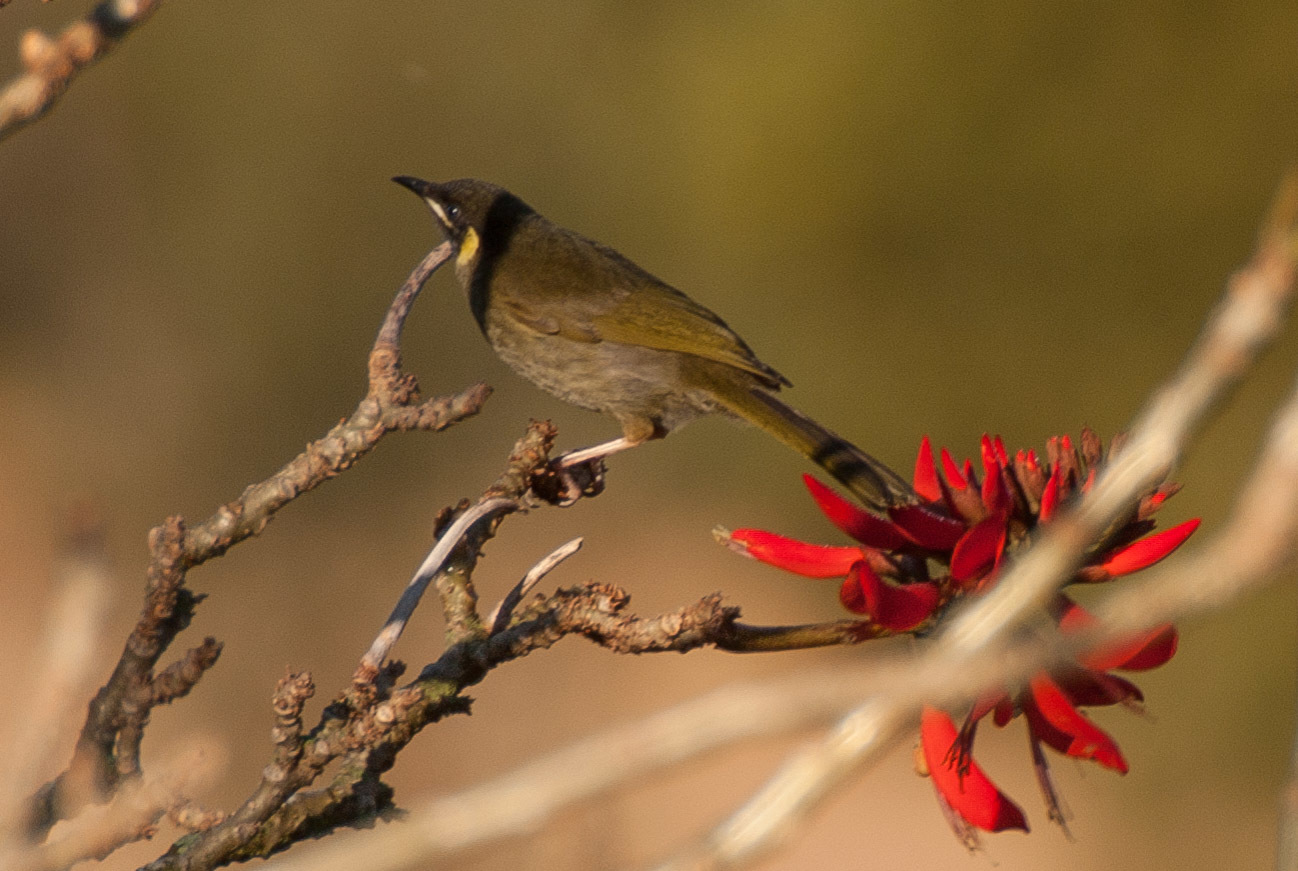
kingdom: Animalia
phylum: Chordata
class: Aves
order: Passeriformes
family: Meliphagidae
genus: Meliphaga
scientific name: Meliphaga lewinii
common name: Lewin's honeyeater
